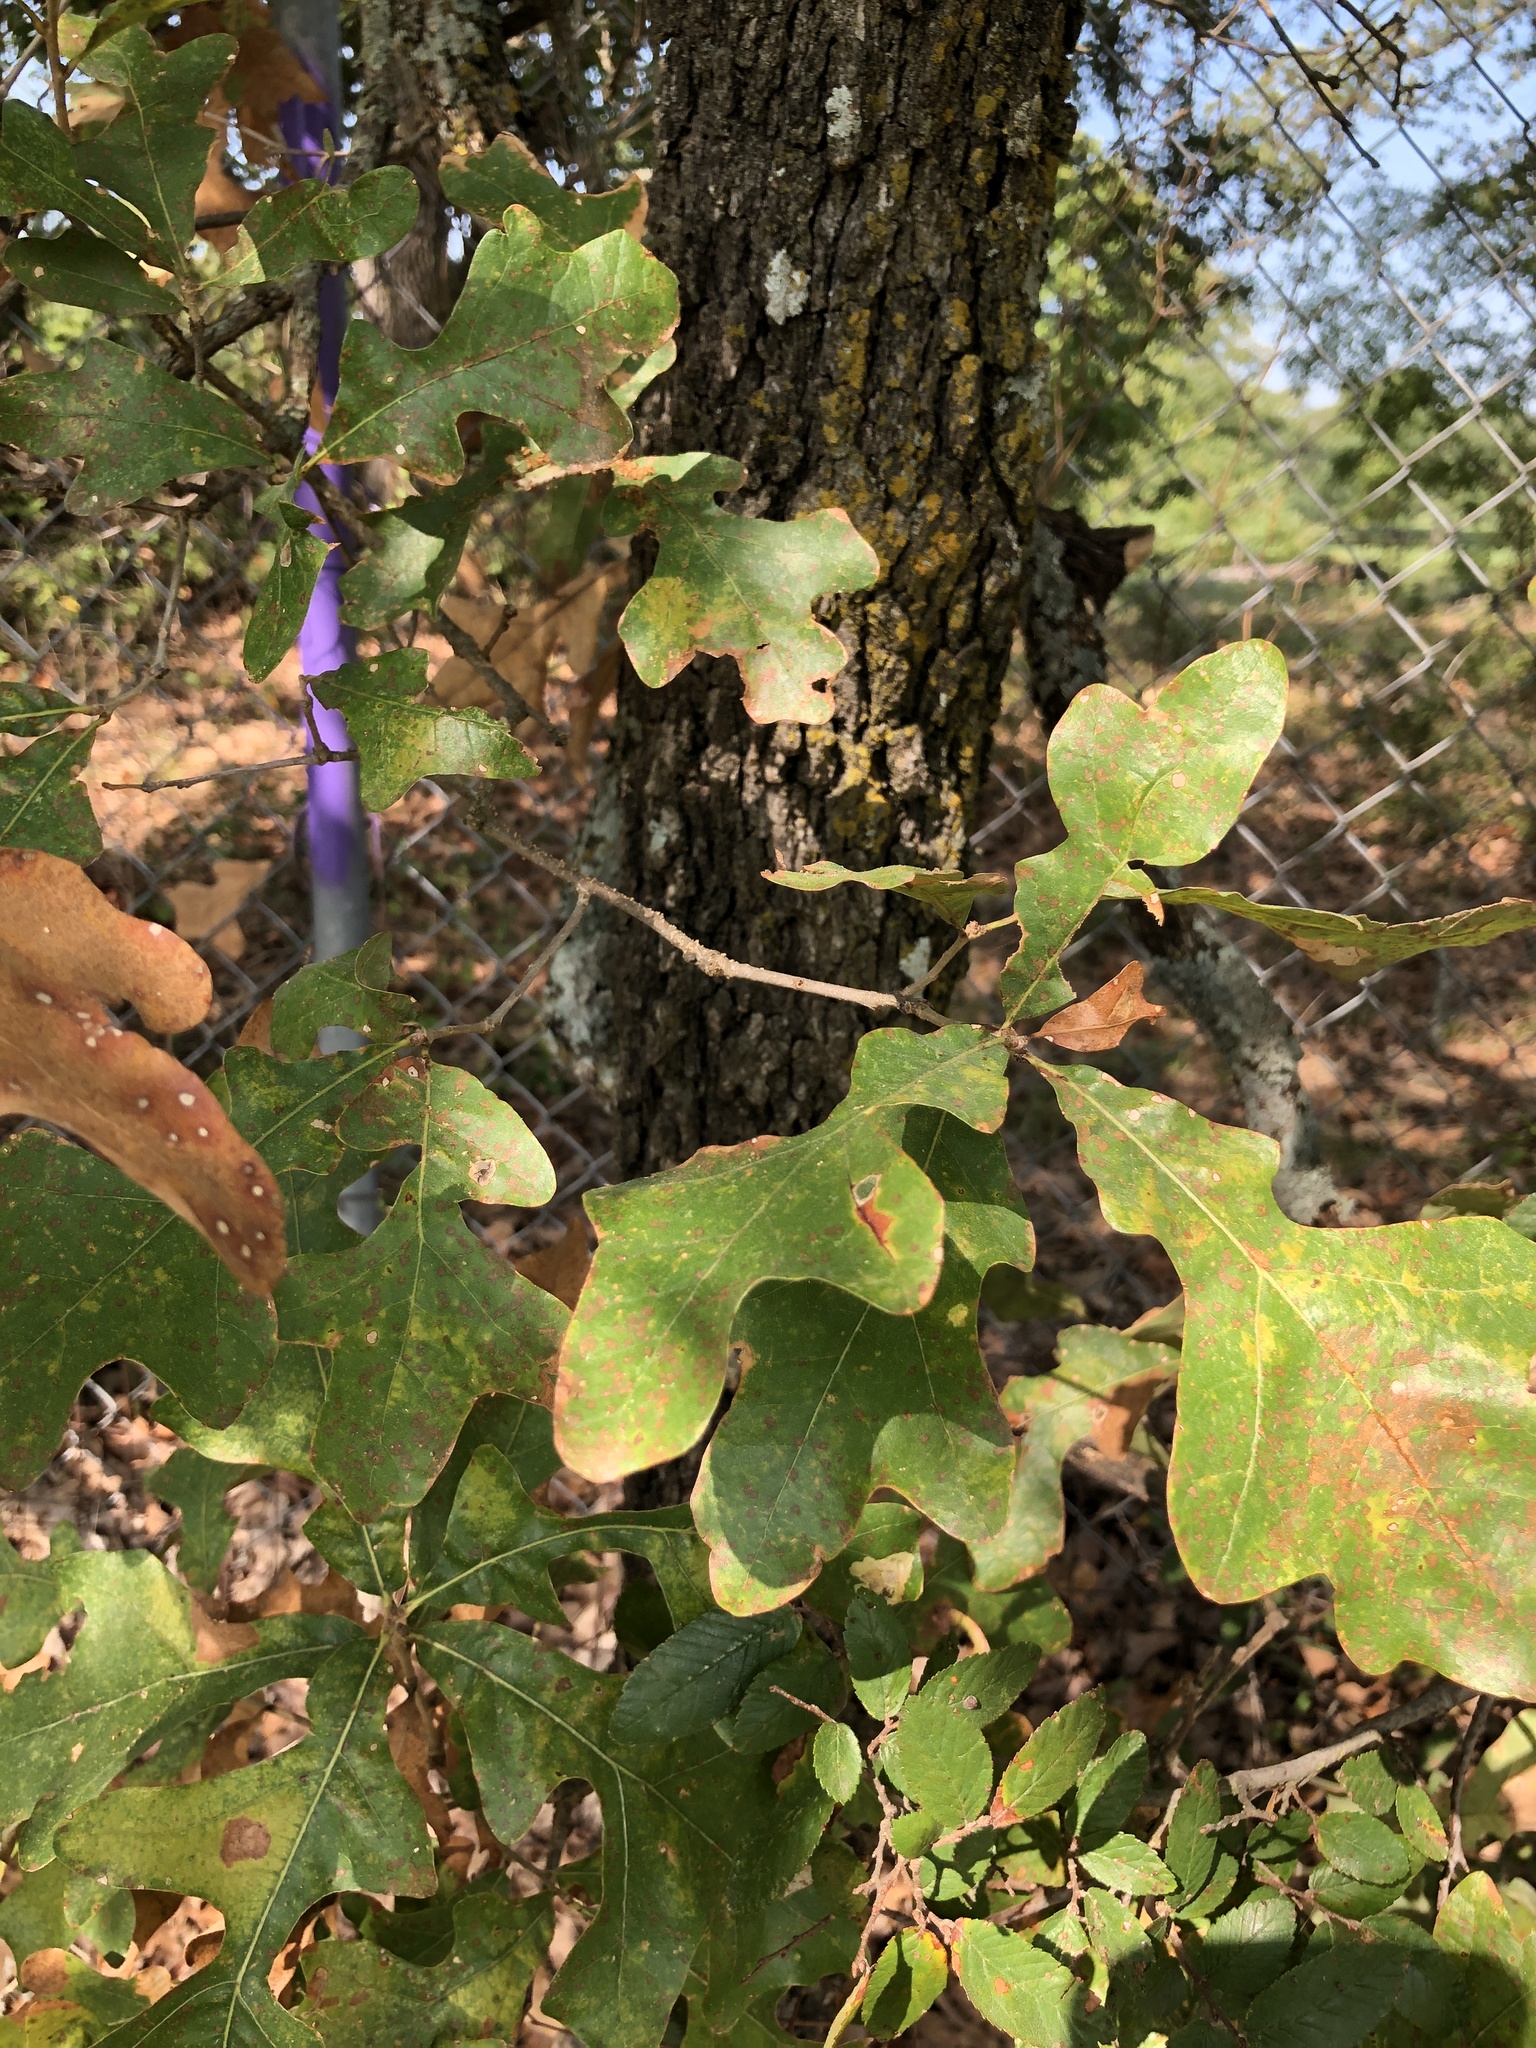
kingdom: Plantae
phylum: Tracheophyta
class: Magnoliopsida
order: Fagales
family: Fagaceae
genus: Quercus
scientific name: Quercus stellata
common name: Post oak
